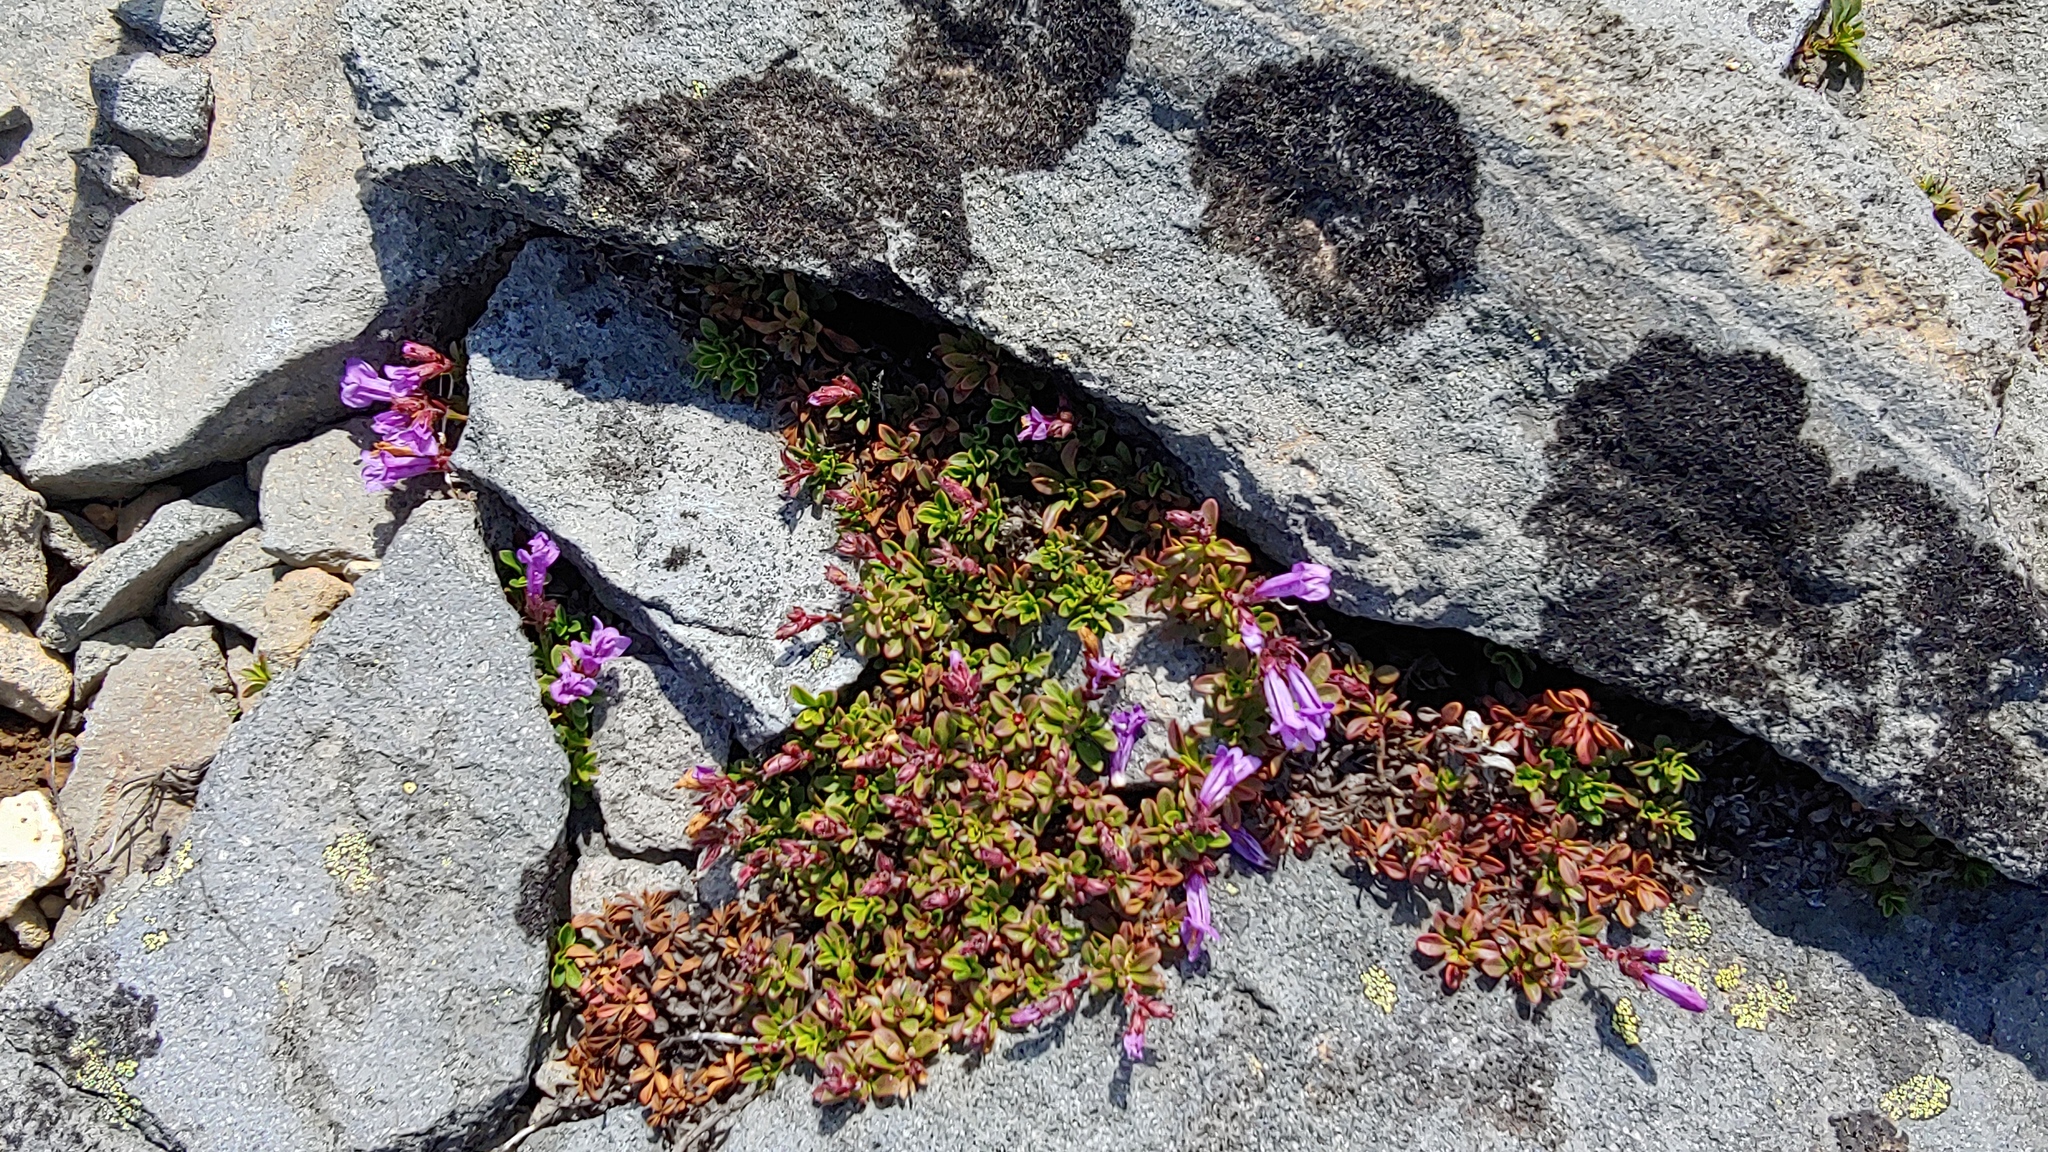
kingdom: Plantae
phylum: Tracheophyta
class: Magnoliopsida
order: Lamiales
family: Plantaginaceae
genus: Penstemon
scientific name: Penstemon davidsonii
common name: Davidson's penstemon
